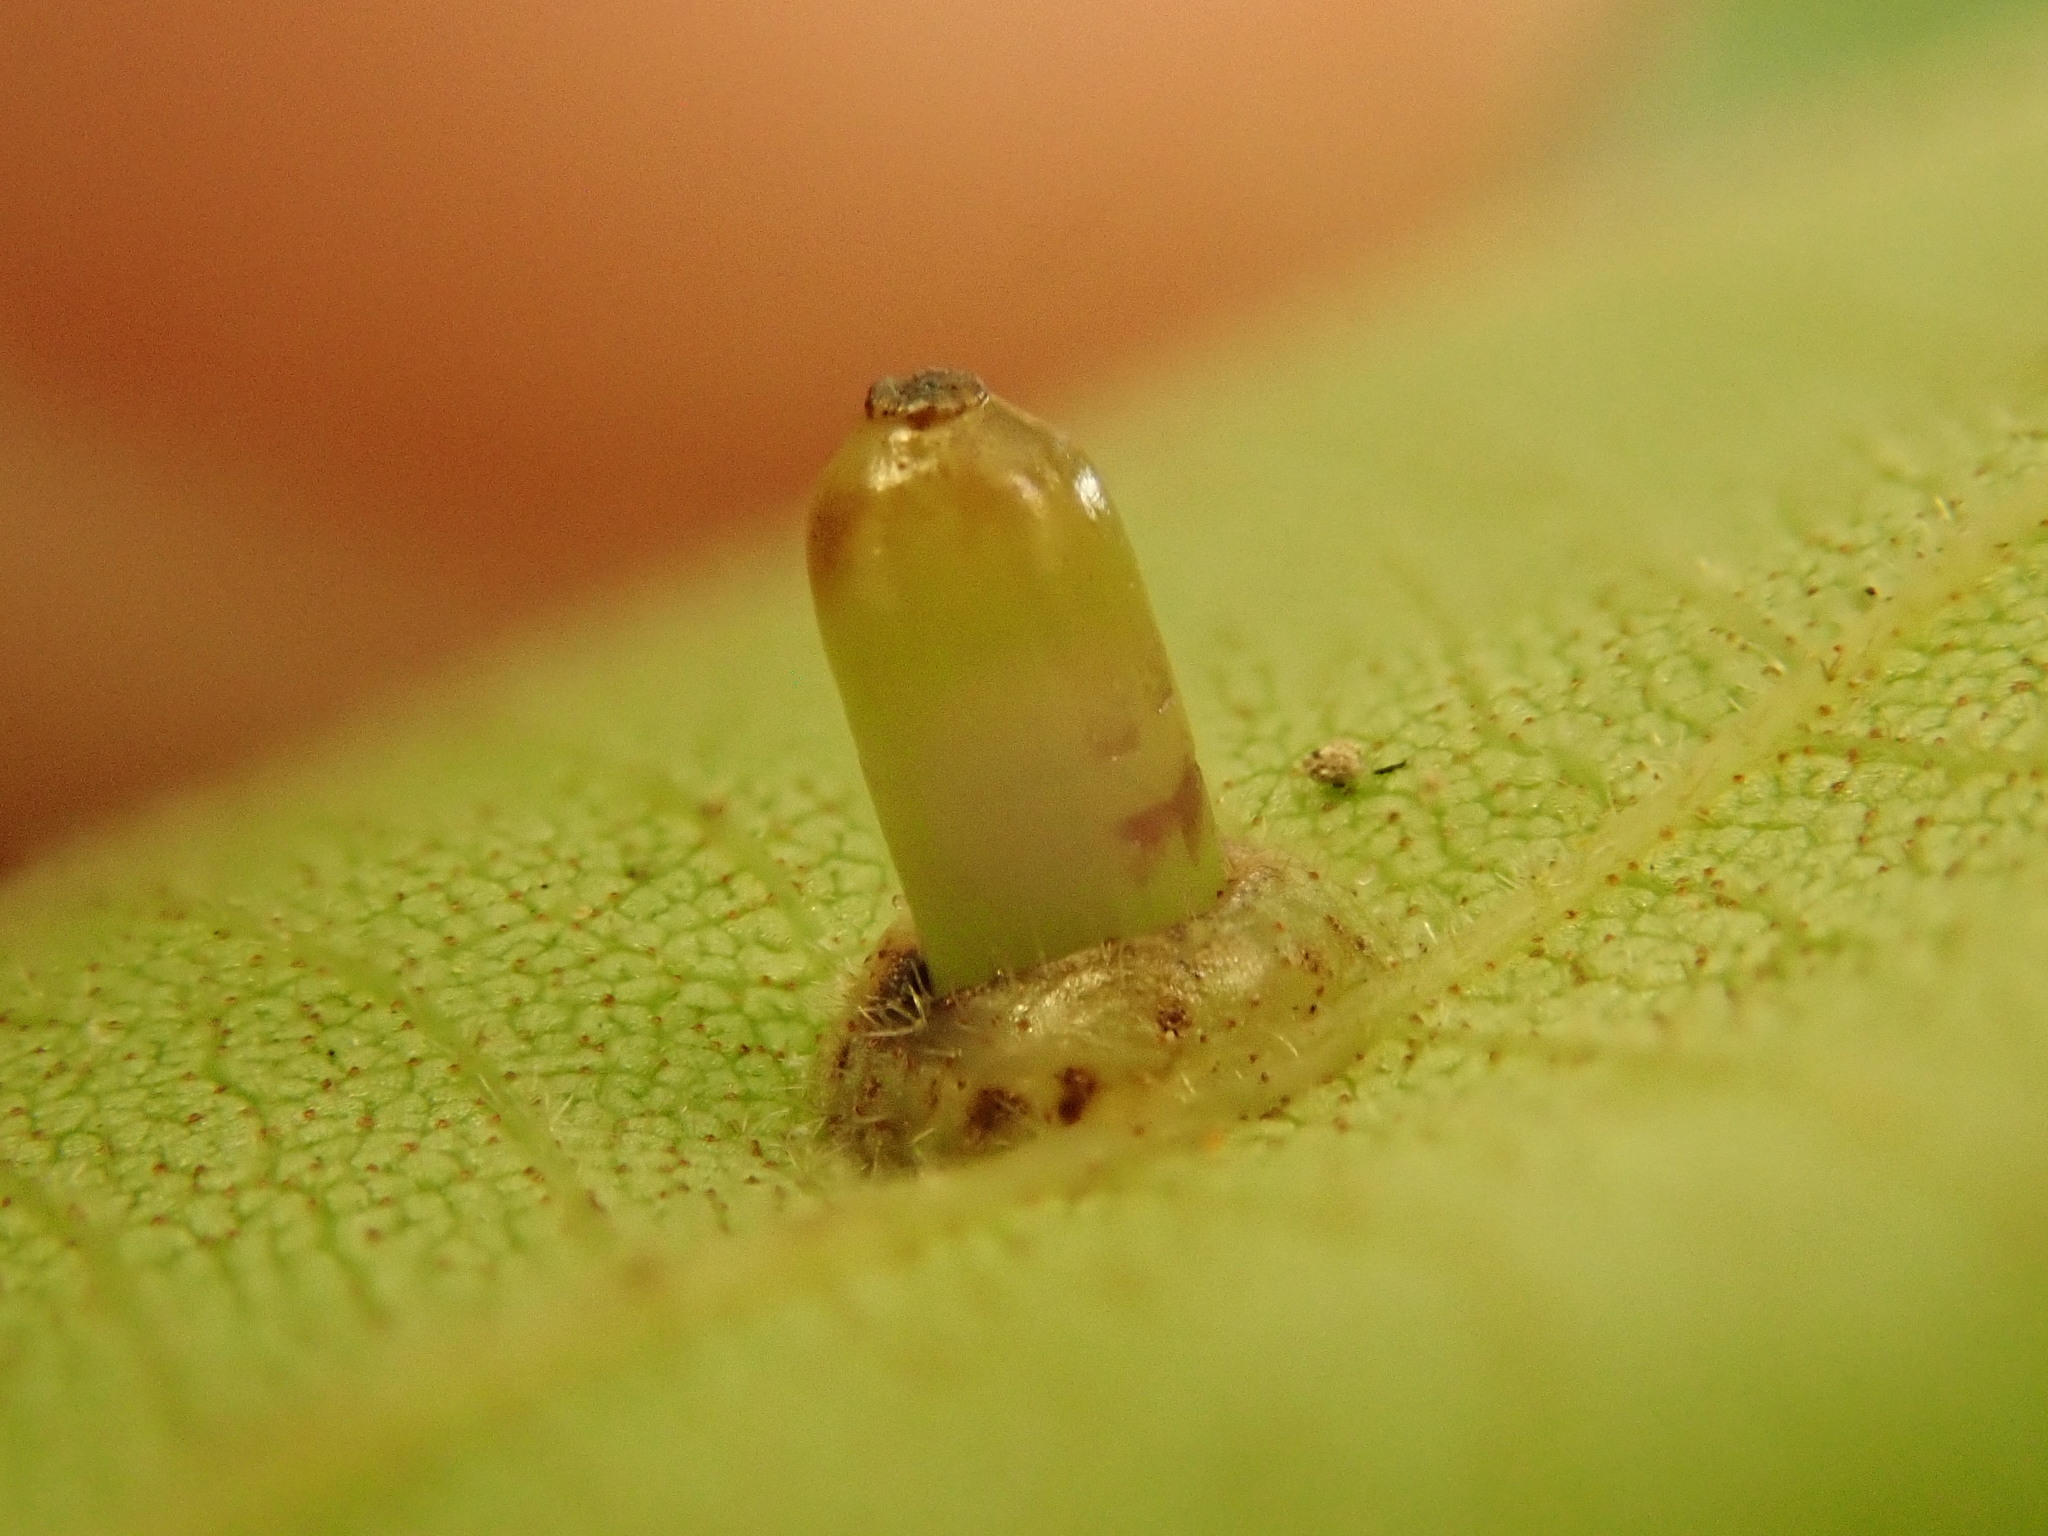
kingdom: Animalia
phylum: Arthropoda
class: Insecta
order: Diptera
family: Cecidomyiidae
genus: Caryomyia
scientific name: Caryomyia tubicola
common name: Hickory bullet gall midge
